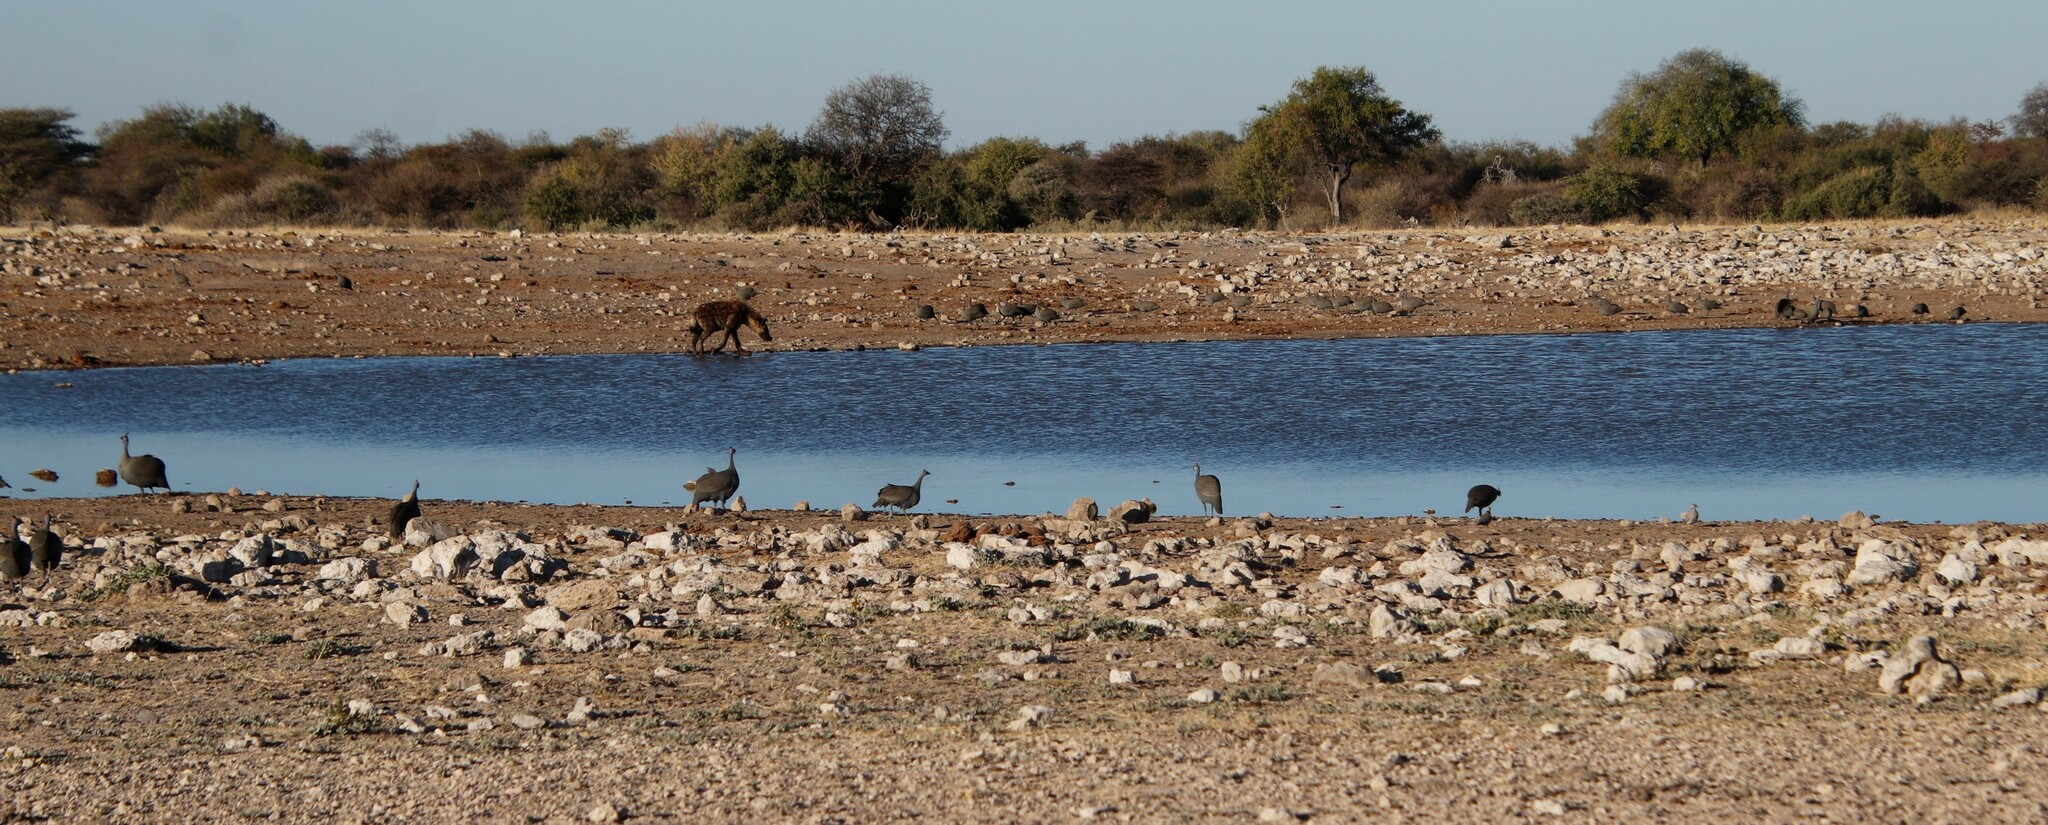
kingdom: Animalia
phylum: Chordata
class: Mammalia
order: Carnivora
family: Hyaenidae
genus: Crocuta
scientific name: Crocuta crocuta
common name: Spotted hyaena
